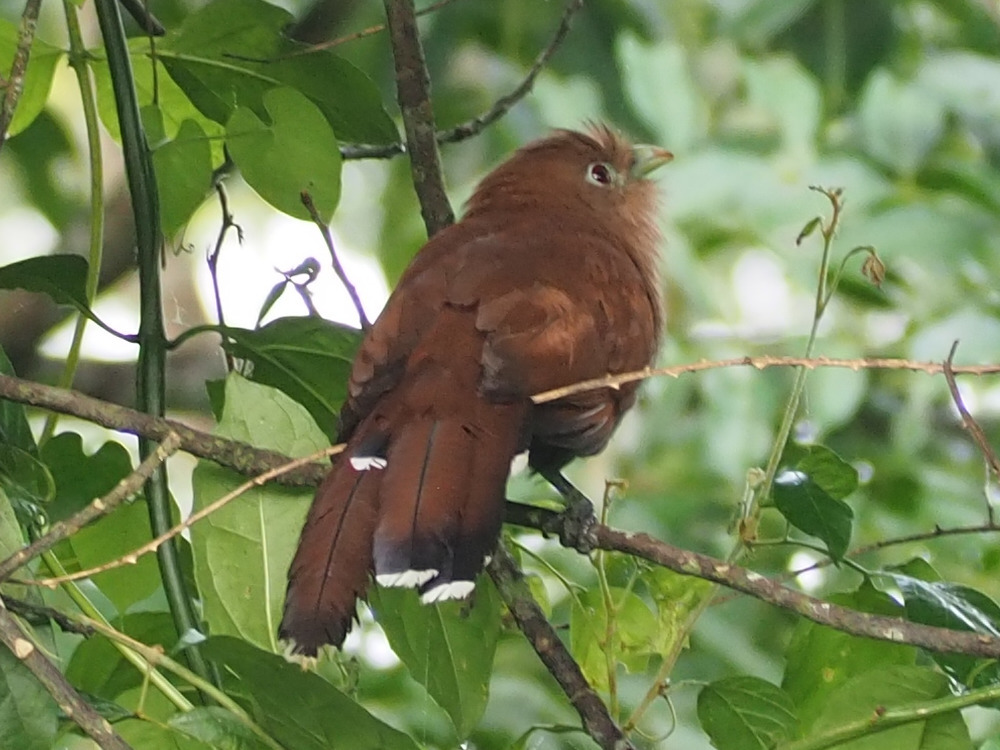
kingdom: Animalia
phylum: Chordata
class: Aves
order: Cuculiformes
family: Cuculidae
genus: Piaya
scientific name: Piaya cayana
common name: Squirrel cuckoo
